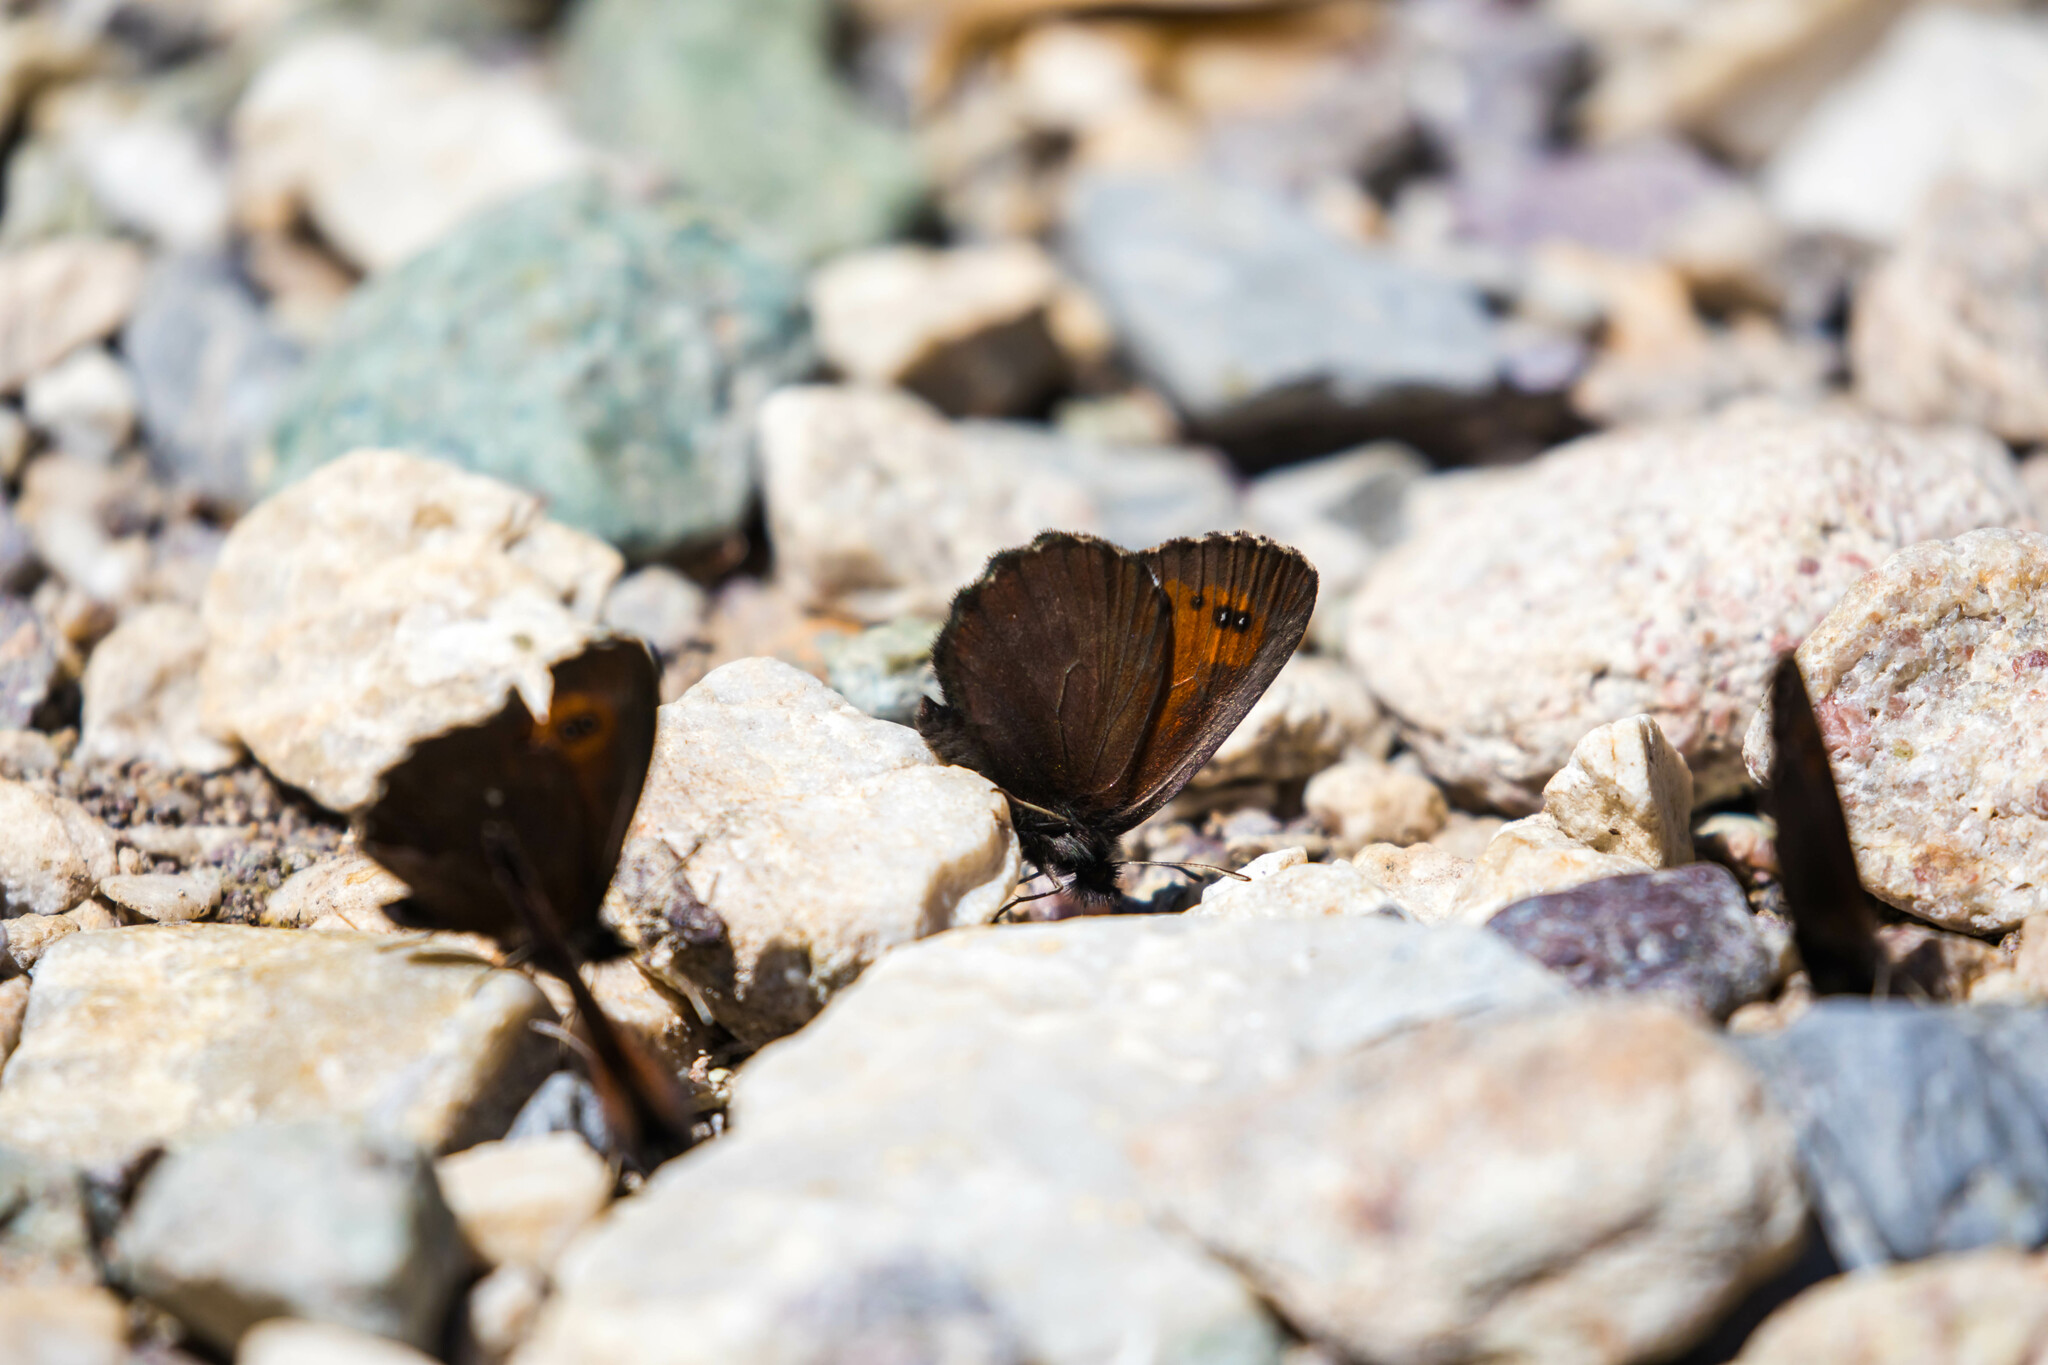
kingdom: Animalia
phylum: Arthropoda
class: Insecta
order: Lepidoptera
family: Nymphalidae
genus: Erebia
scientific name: Erebia euryale
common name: Large ringlet
